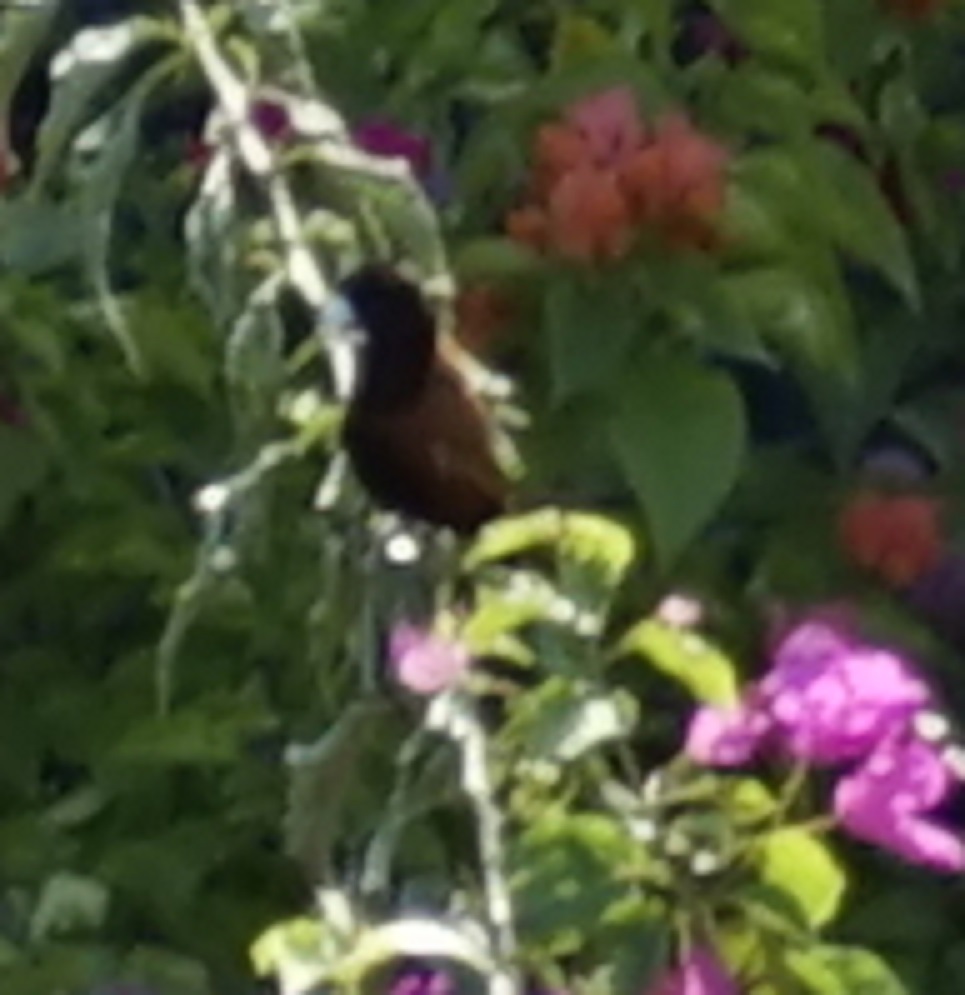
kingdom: Animalia
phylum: Chordata
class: Aves
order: Passeriformes
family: Estrildidae
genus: Lonchura
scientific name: Lonchura atricapilla
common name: Chestnut munia
